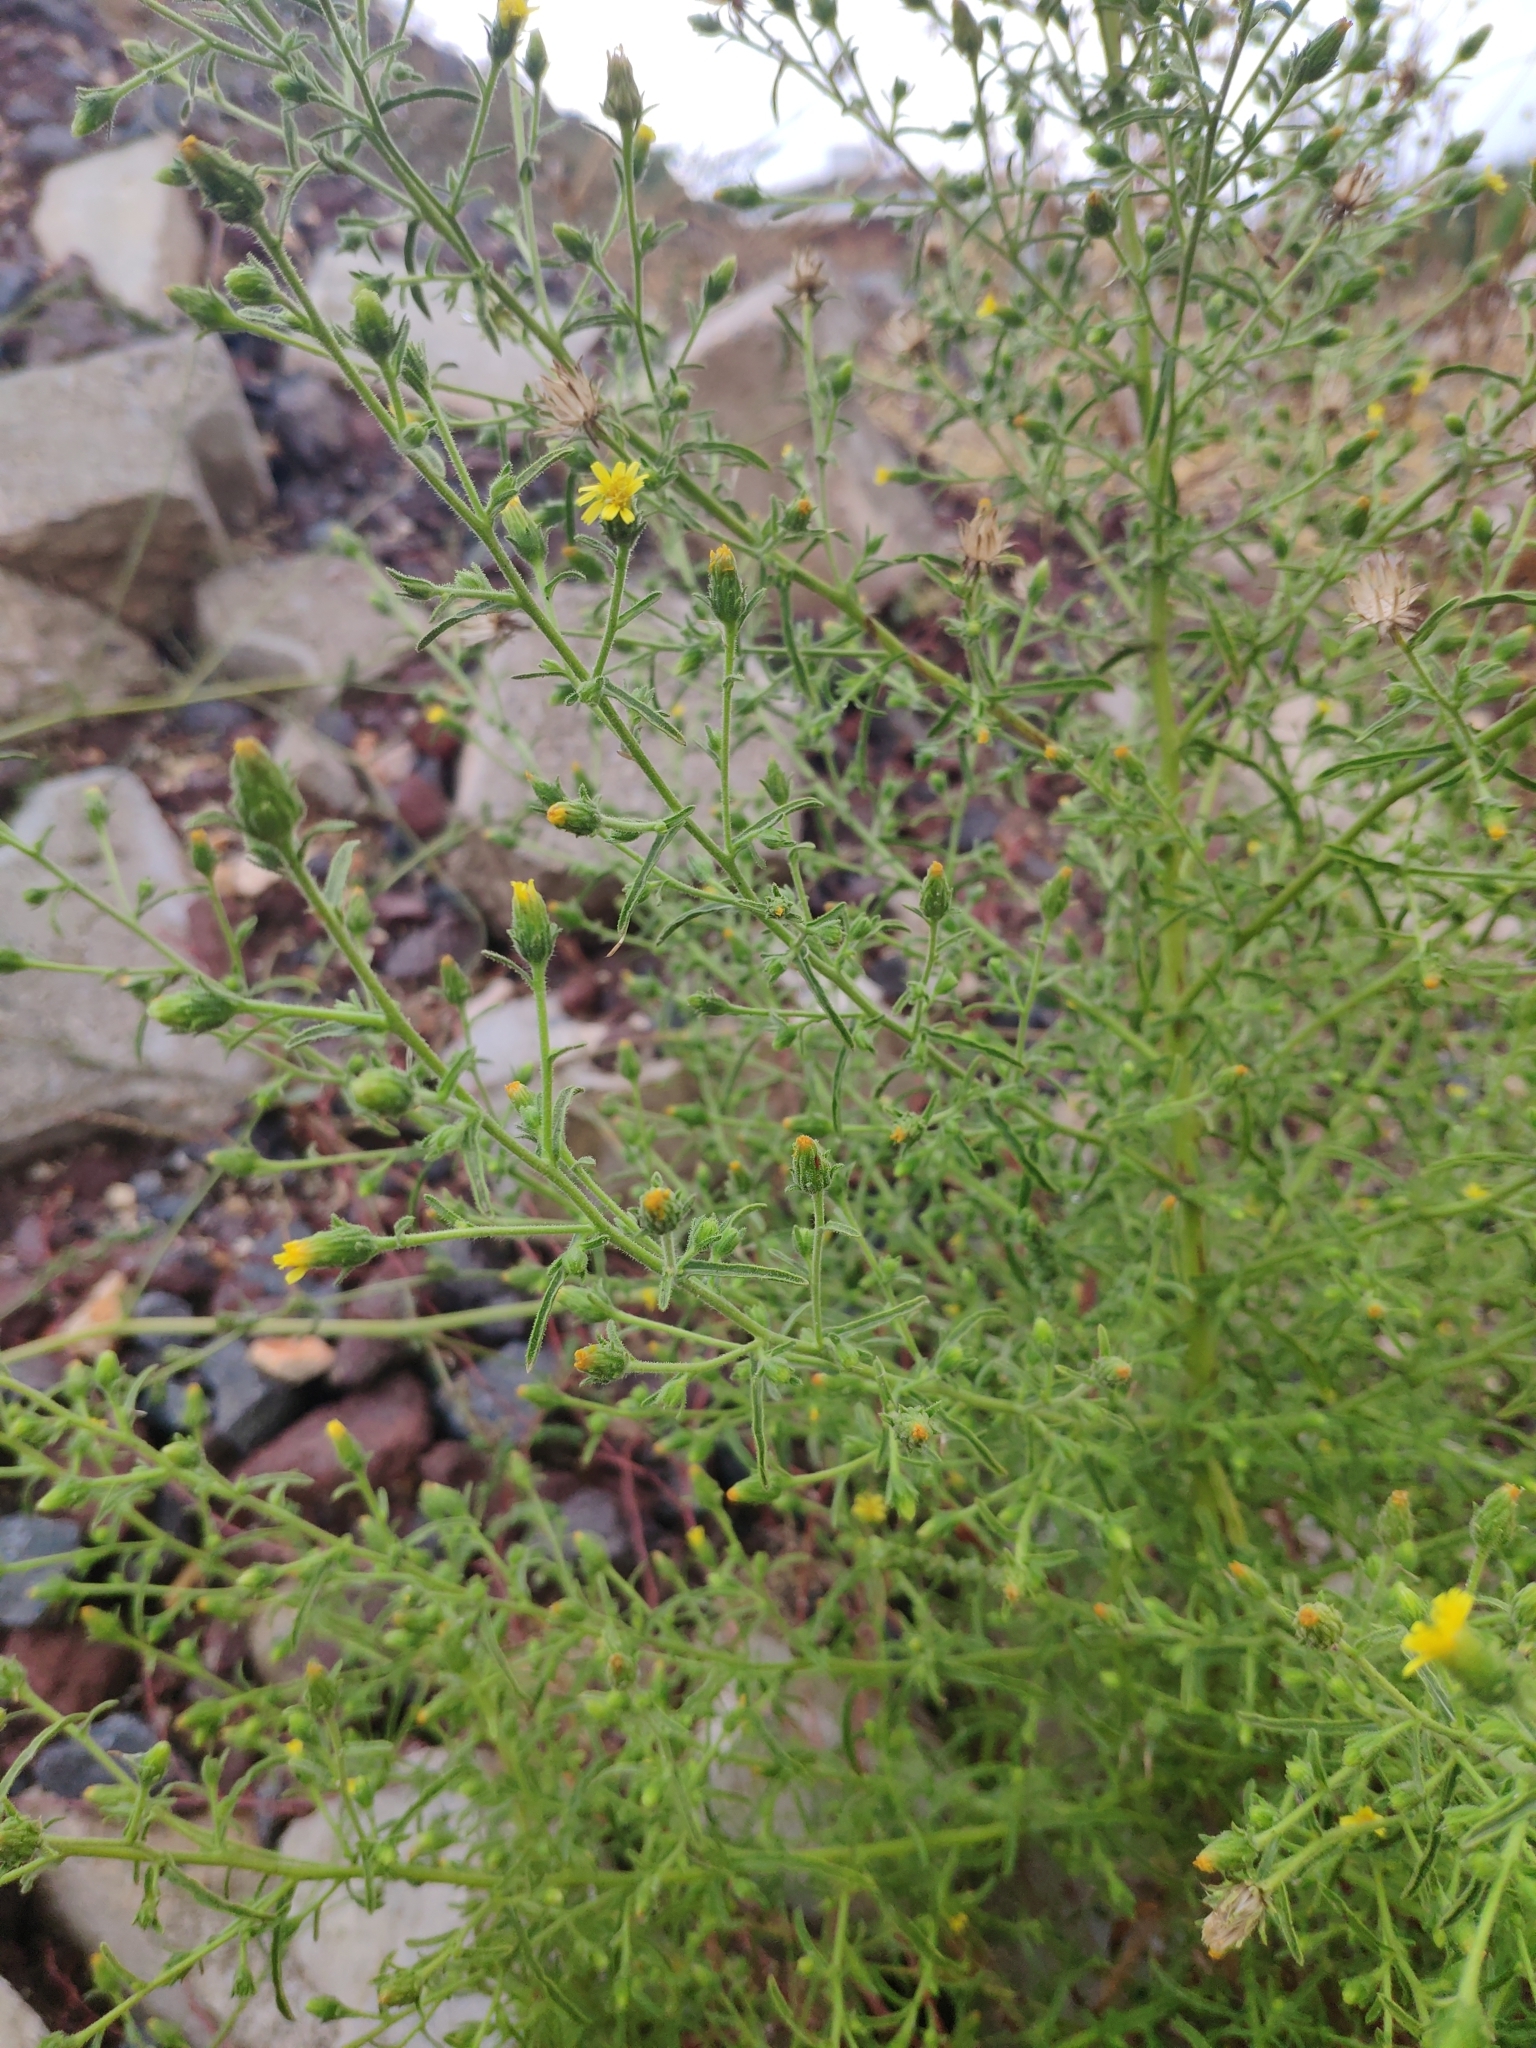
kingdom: Plantae
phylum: Tracheophyta
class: Magnoliopsida
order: Asterales
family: Asteraceae
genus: Dittrichia
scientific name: Dittrichia graveolens
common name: Stinking fleabane
